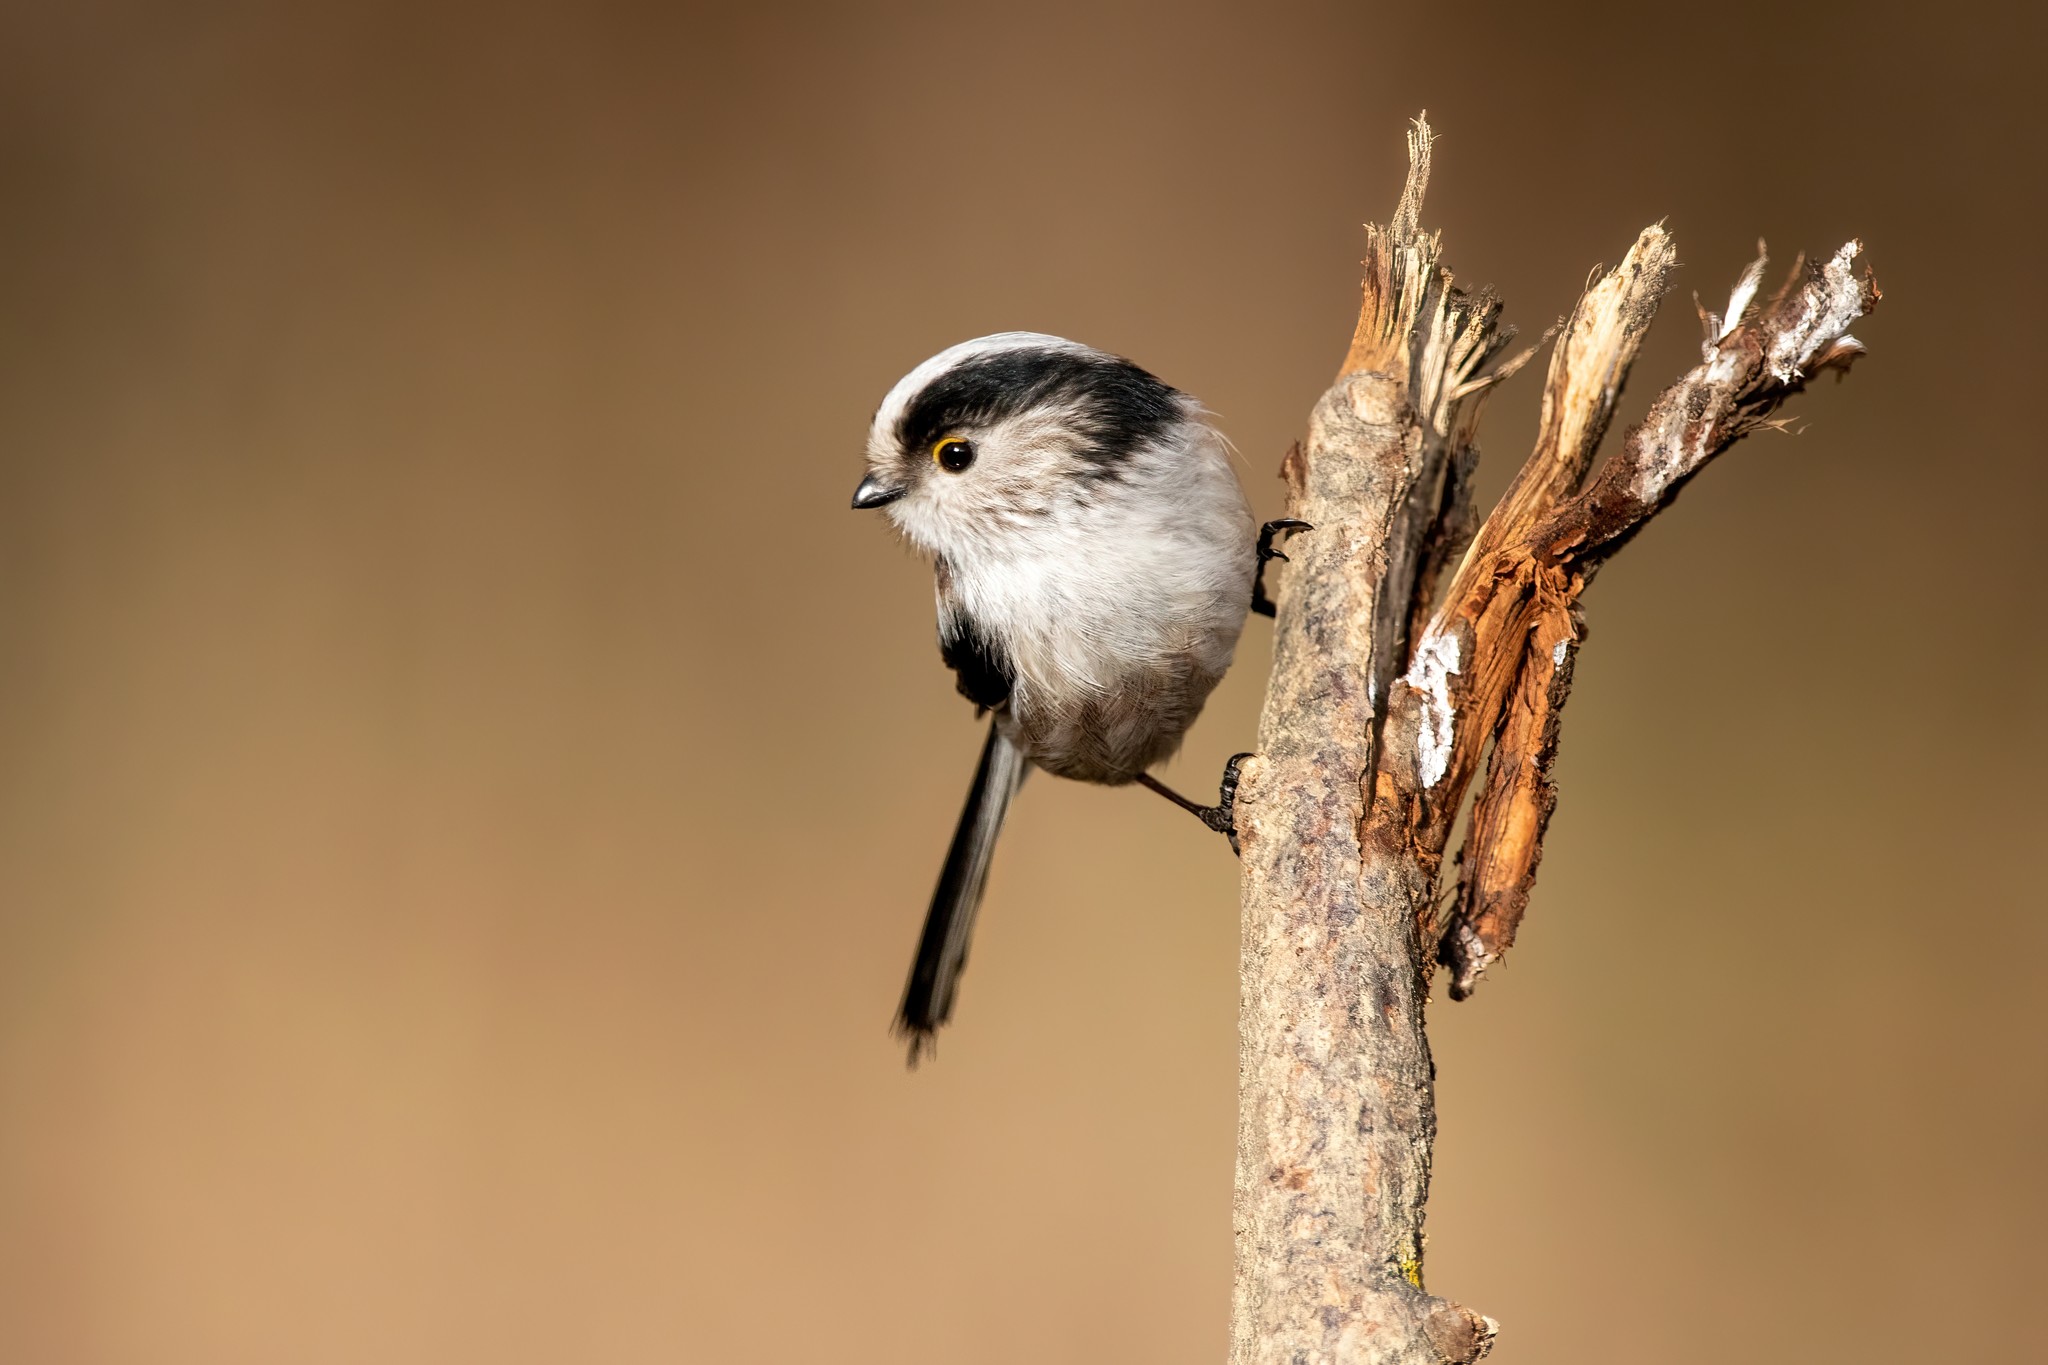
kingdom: Animalia
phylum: Chordata
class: Aves
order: Passeriformes
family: Aegithalidae
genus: Aegithalos
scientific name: Aegithalos caudatus
